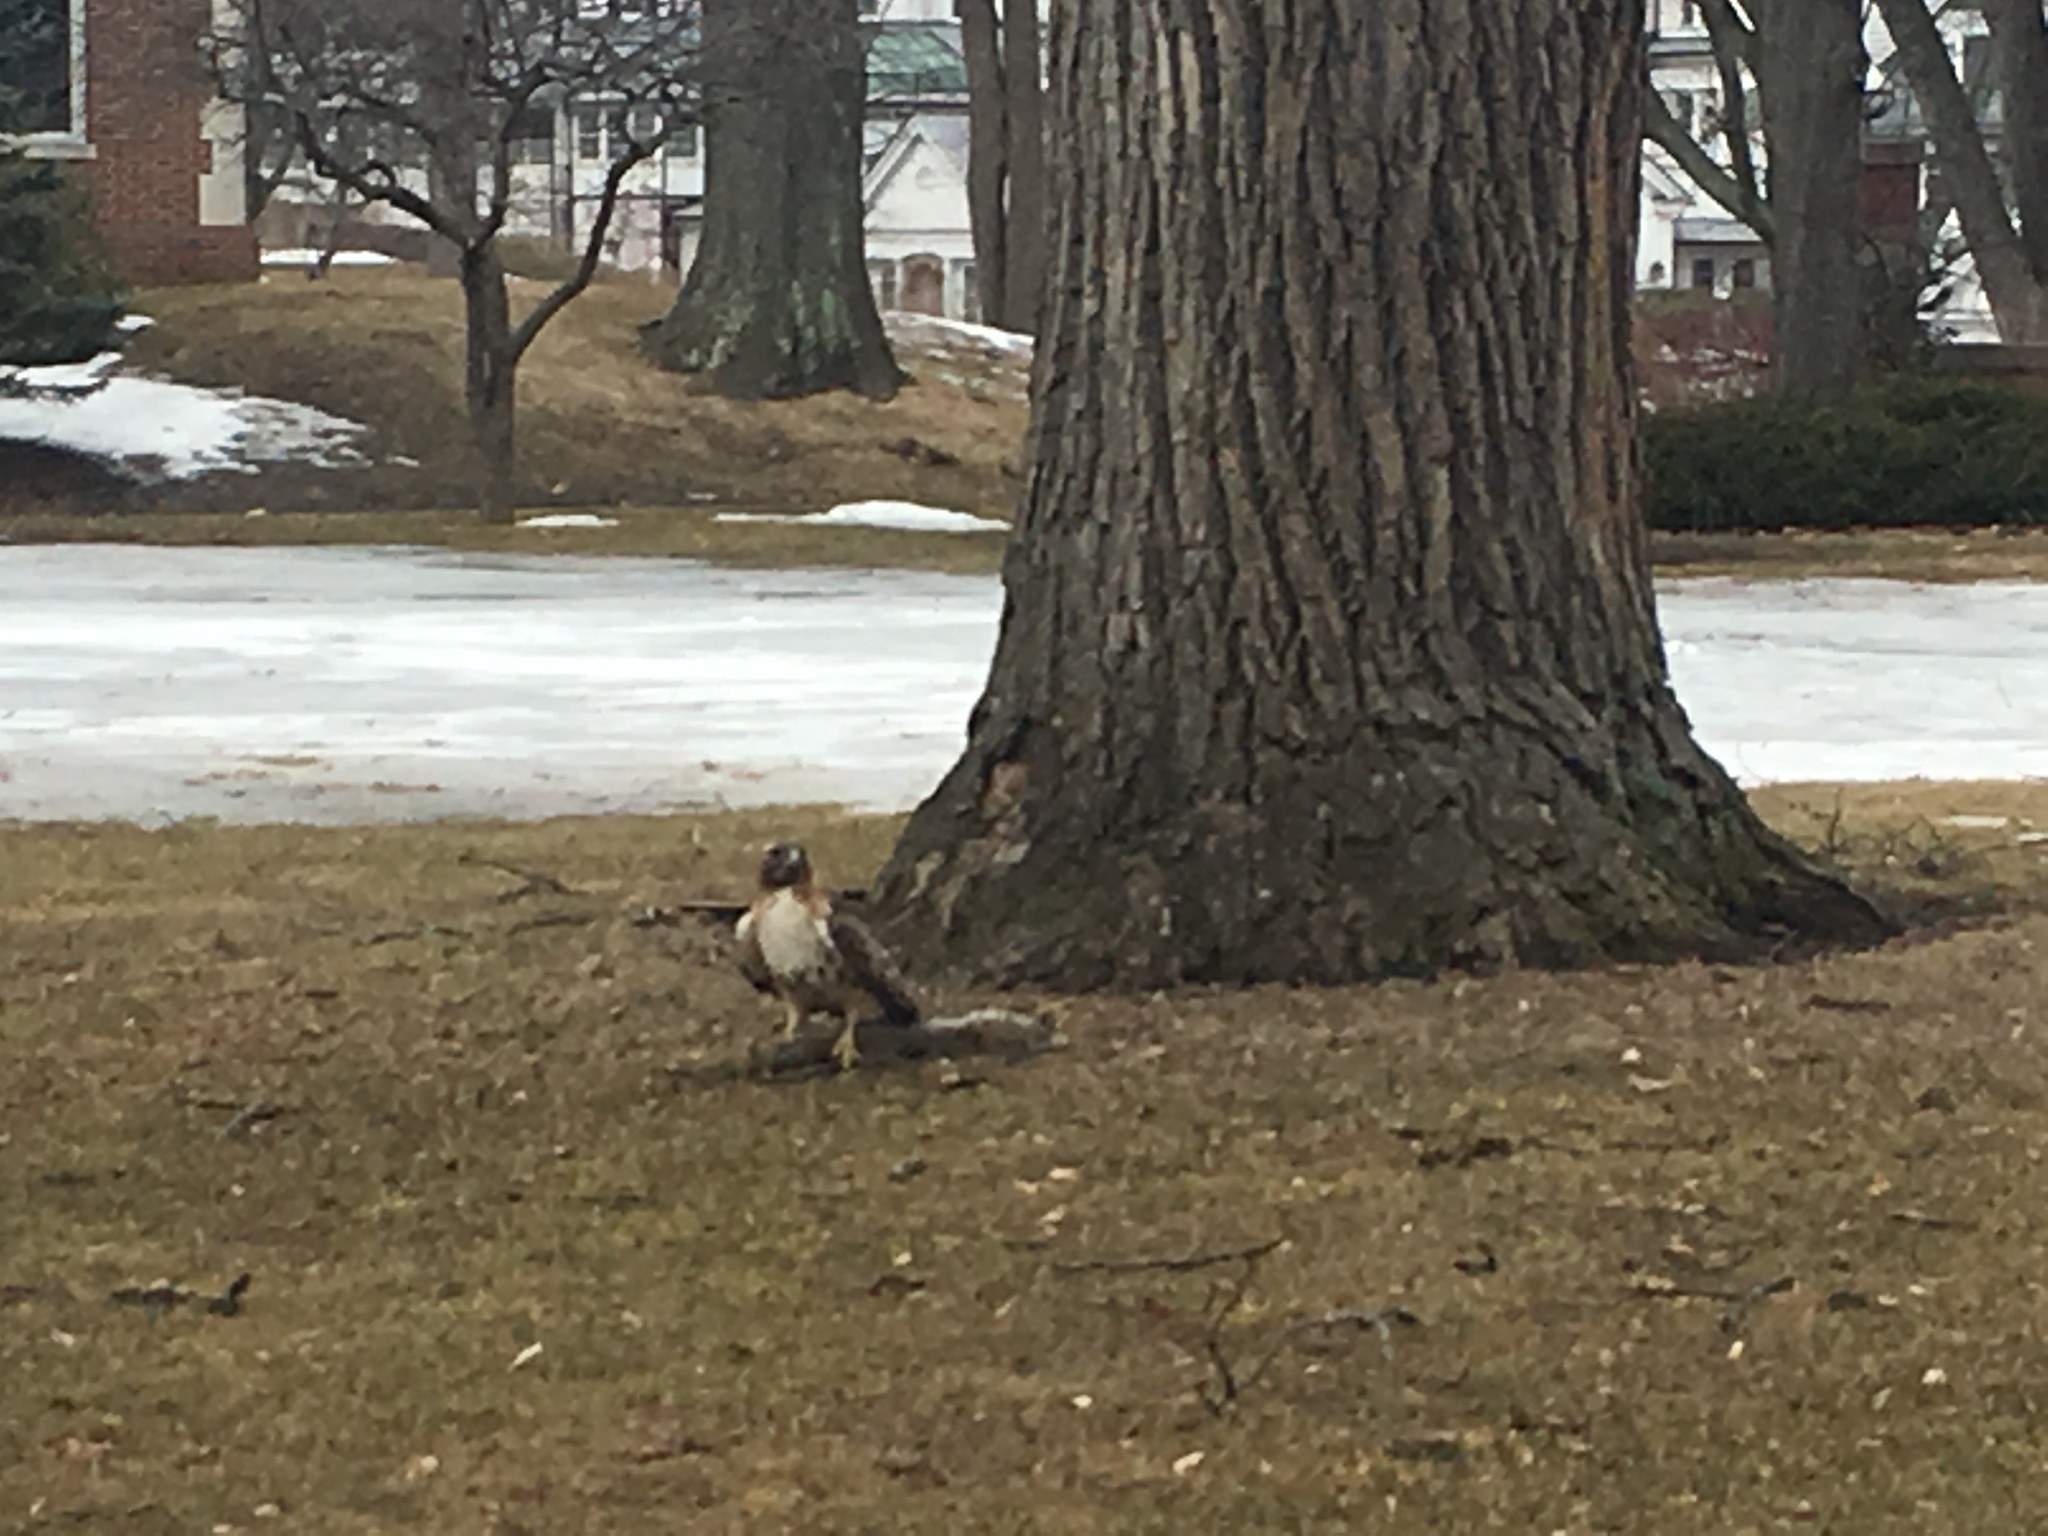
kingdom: Animalia
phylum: Chordata
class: Aves
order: Accipitriformes
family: Accipitridae
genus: Buteo
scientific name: Buteo jamaicensis
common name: Red-tailed hawk
